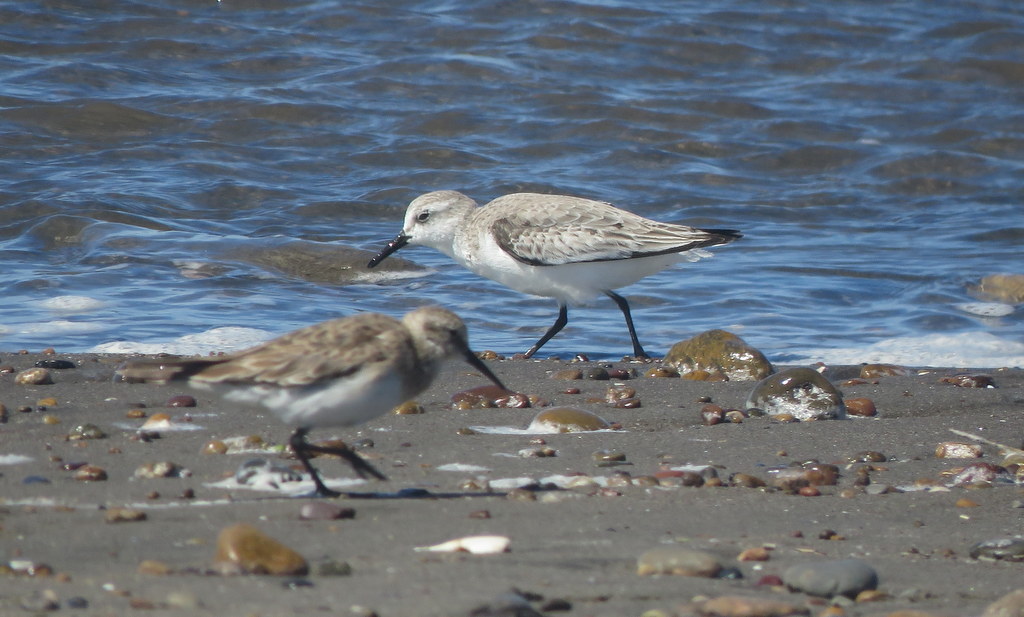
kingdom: Animalia
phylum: Chordata
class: Aves
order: Charadriiformes
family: Scolopacidae
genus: Calidris
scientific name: Calidris alba
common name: Sanderling
